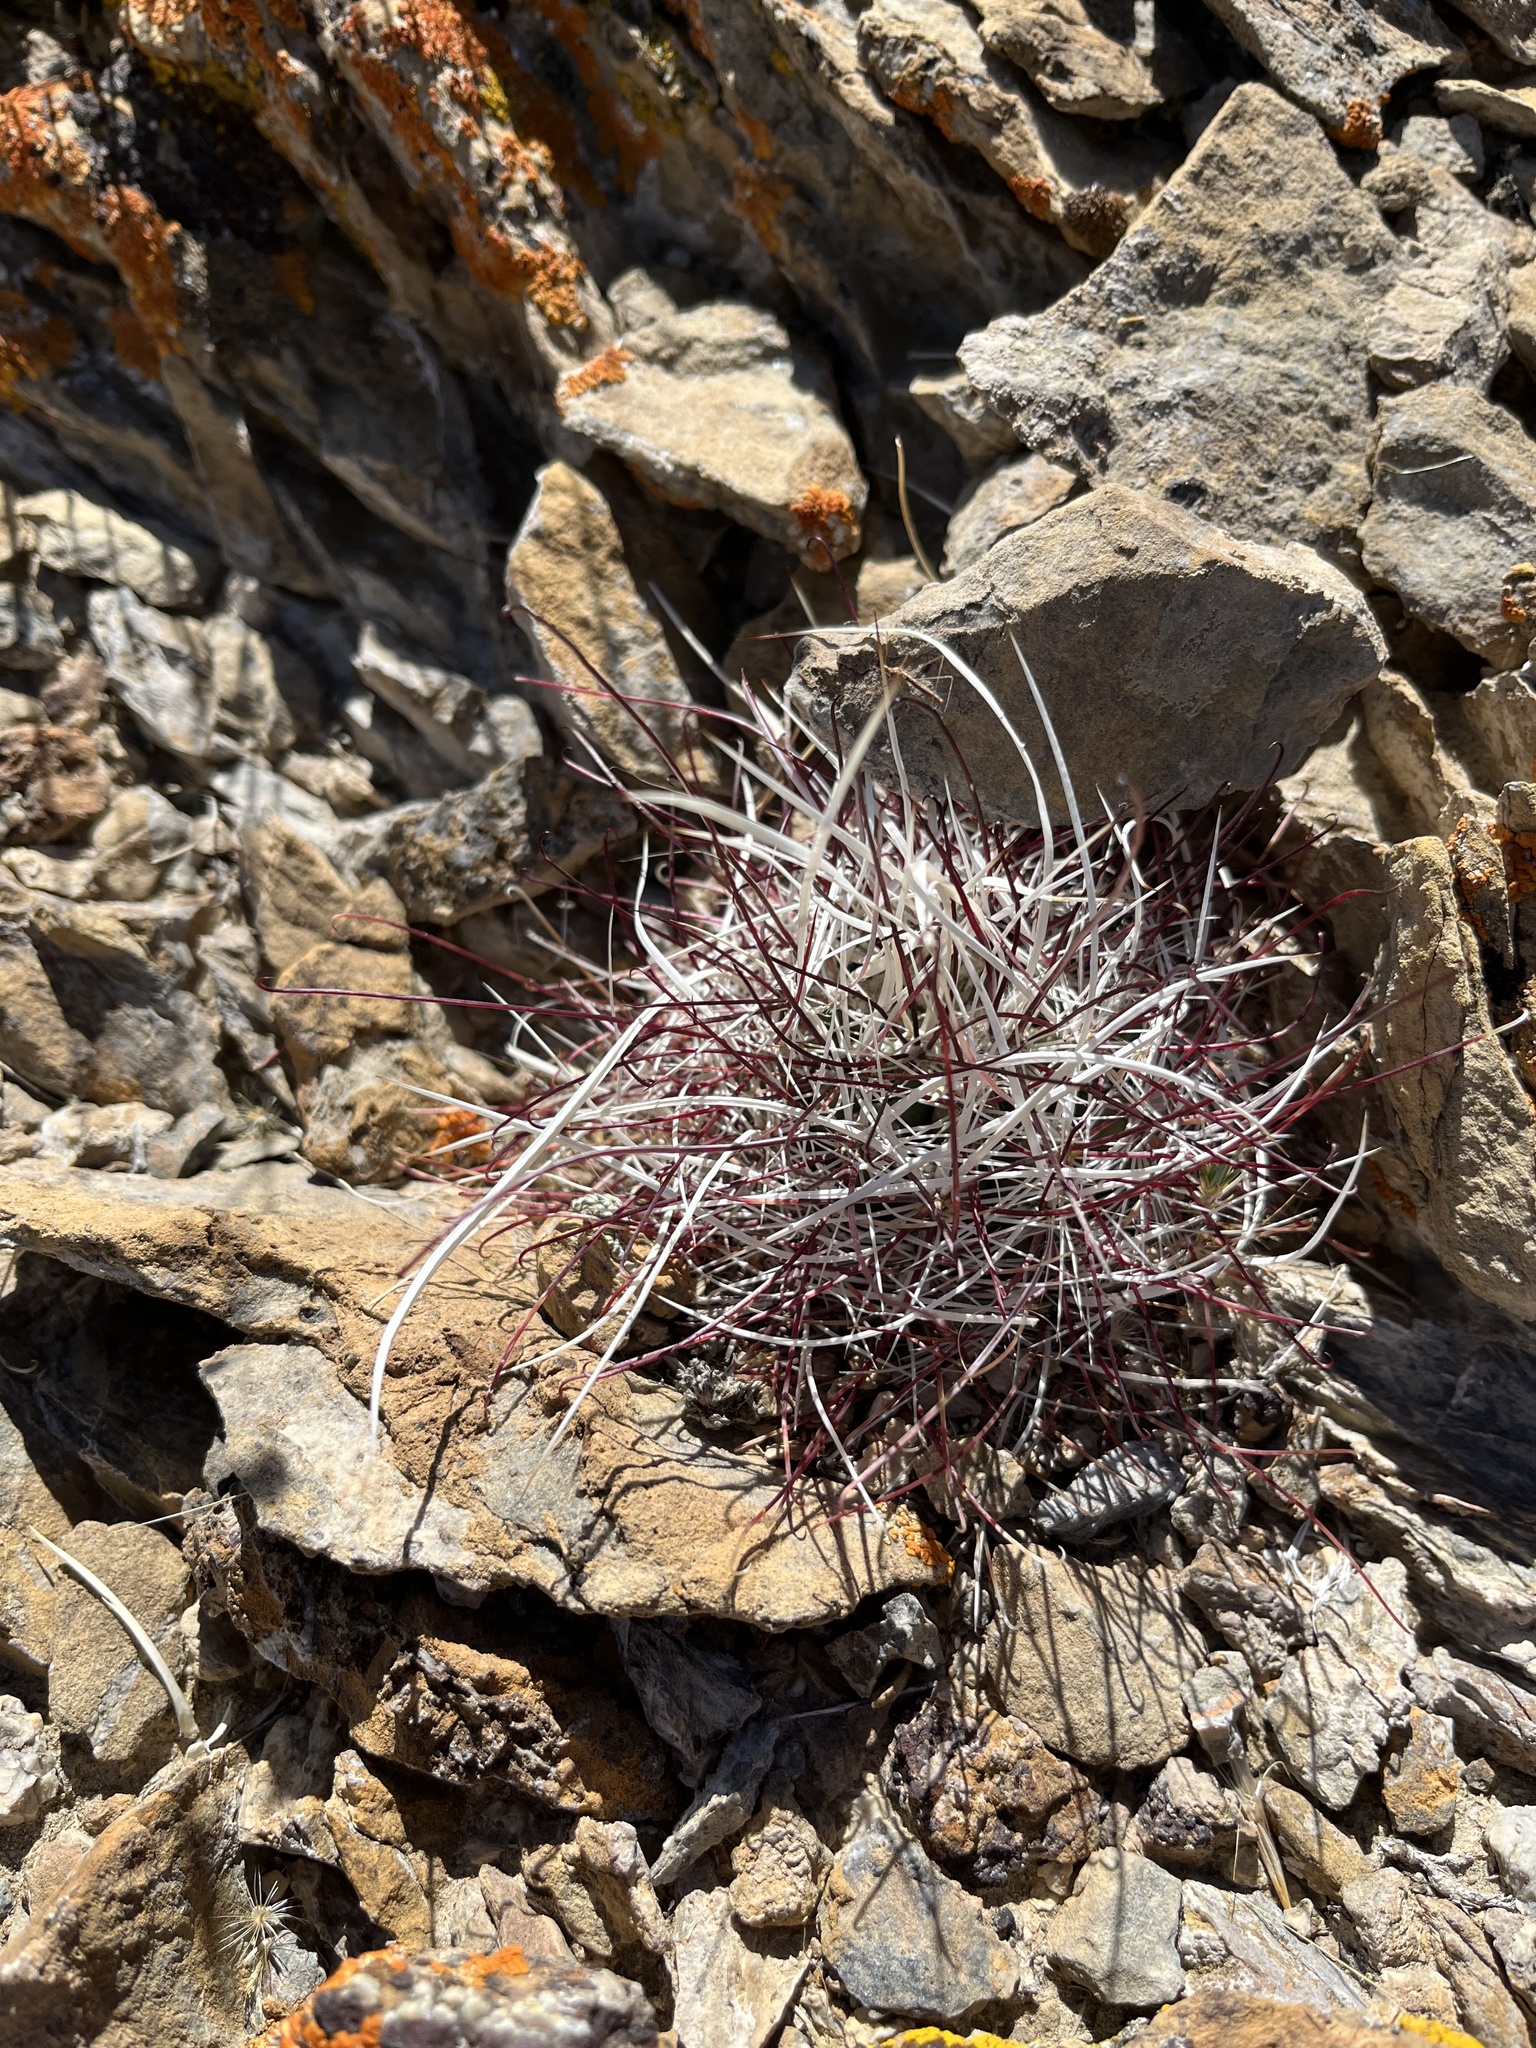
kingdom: Plantae
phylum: Tracheophyta
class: Magnoliopsida
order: Caryophyllales
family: Cactaceae
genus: Sclerocactus
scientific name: Sclerocactus polyancistrus
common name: Mohave fishhook cactus
